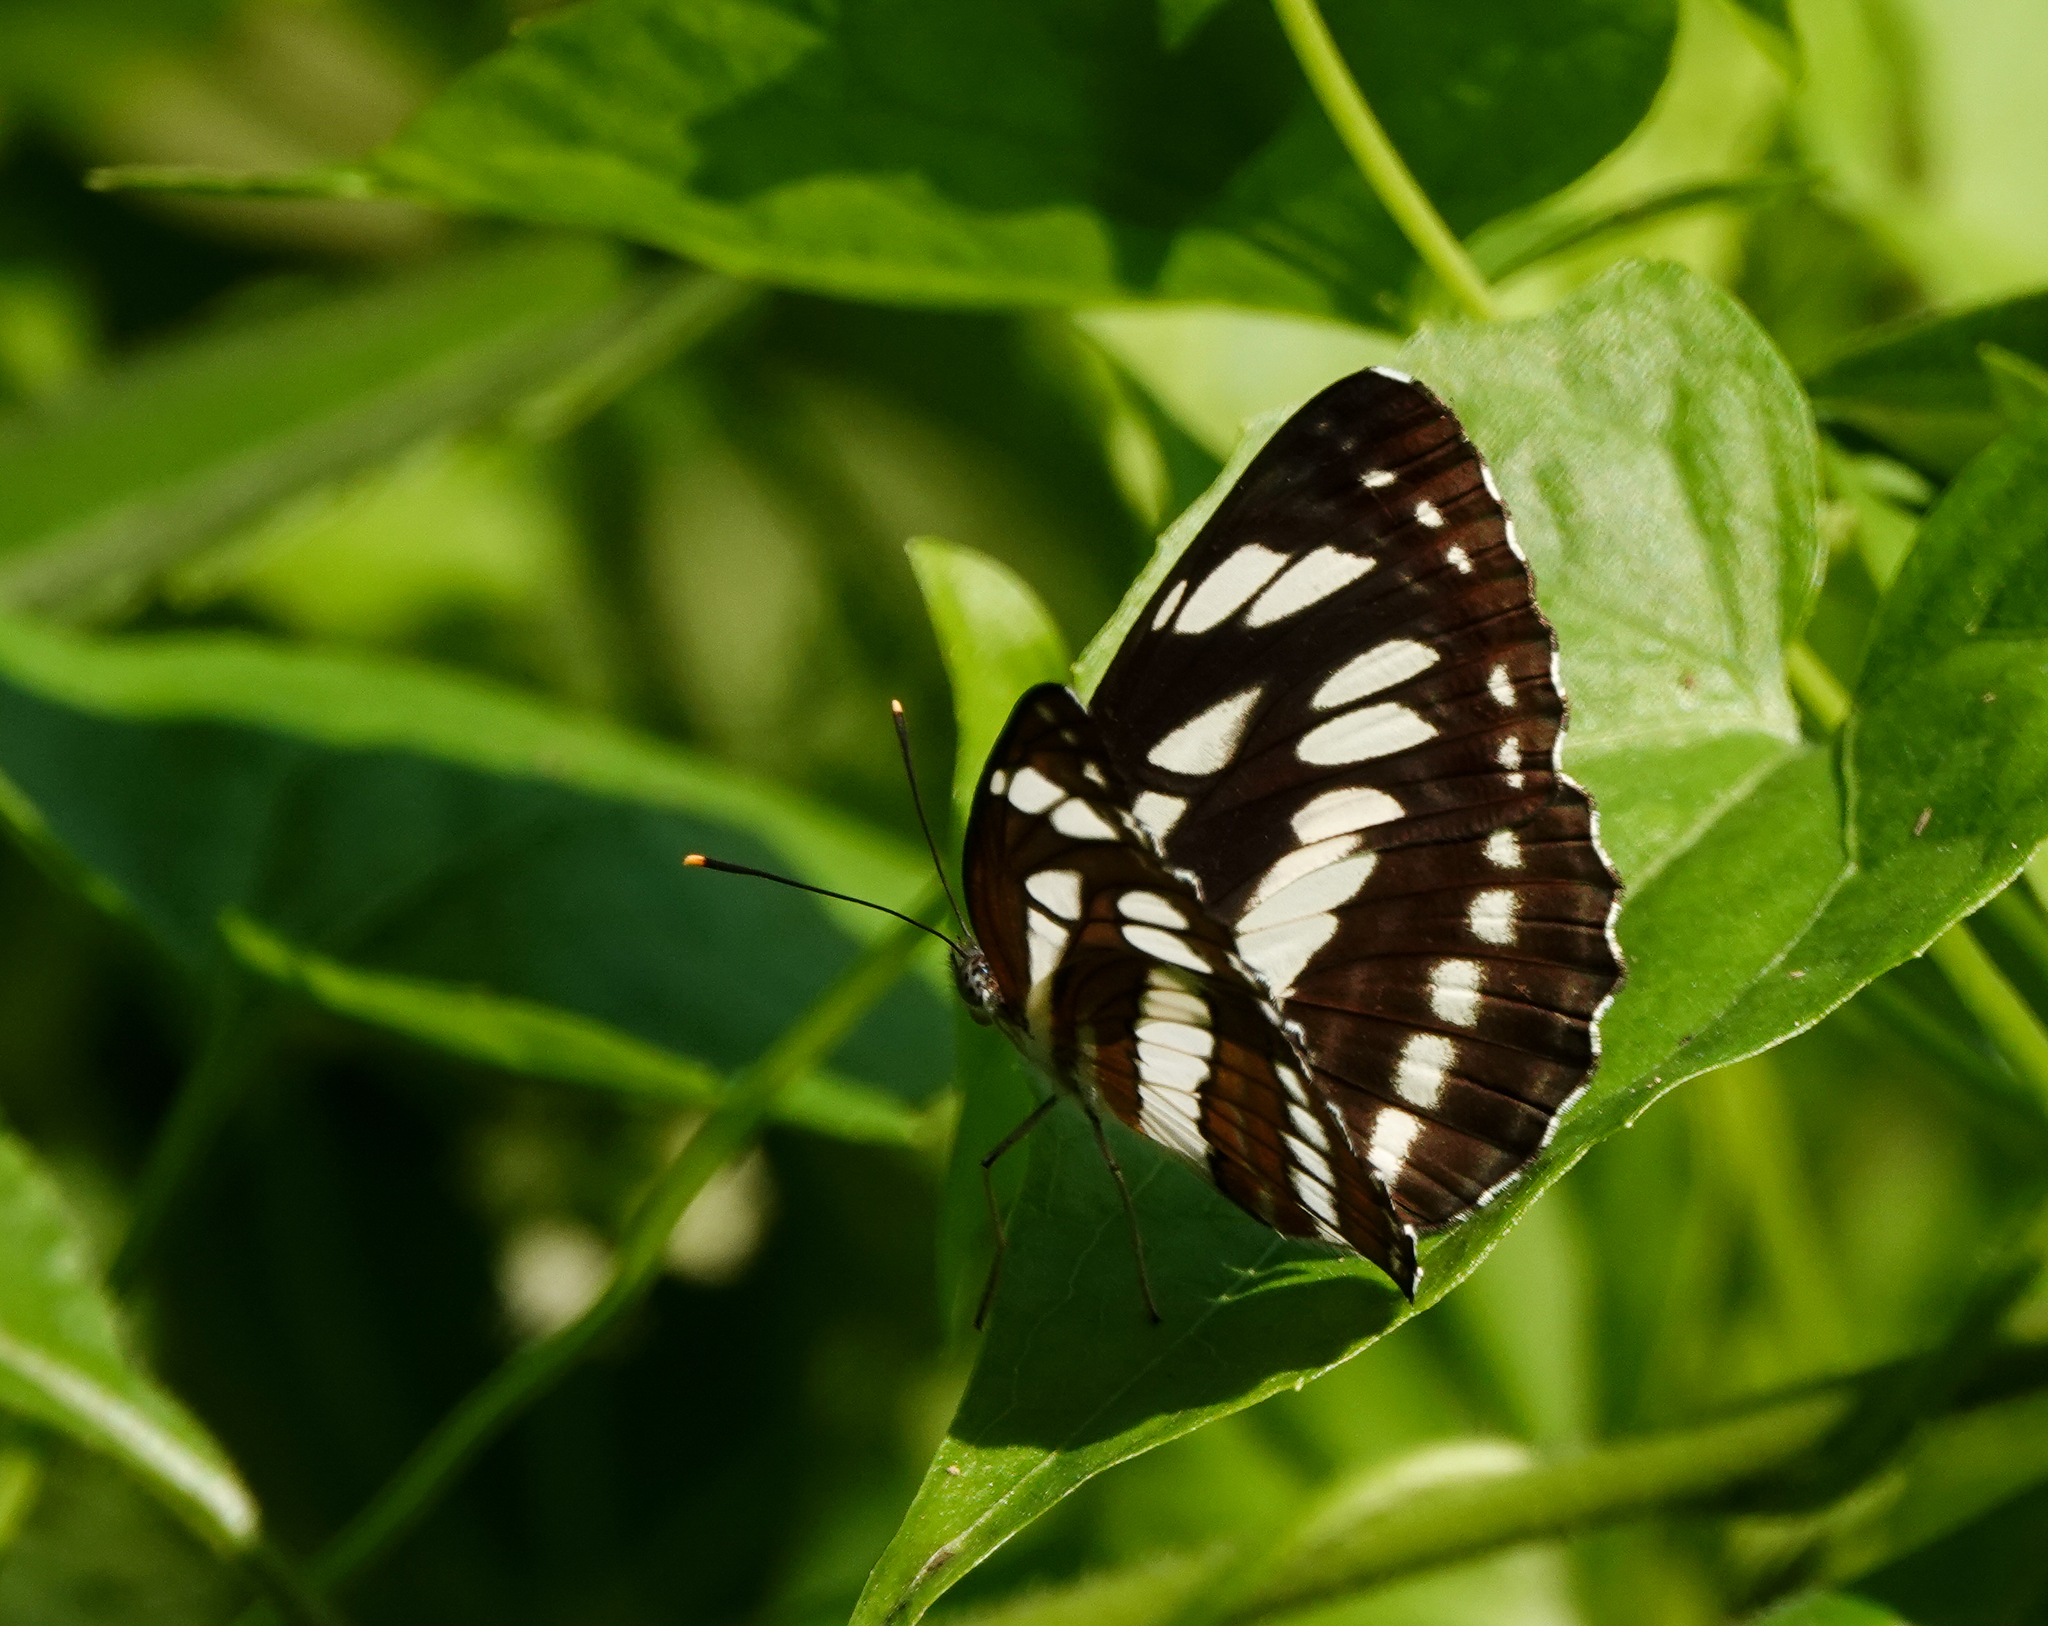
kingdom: Animalia
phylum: Arthropoda
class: Insecta
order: Lepidoptera
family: Nymphalidae
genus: Neptis
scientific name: Neptis hylas
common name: Common sailer
